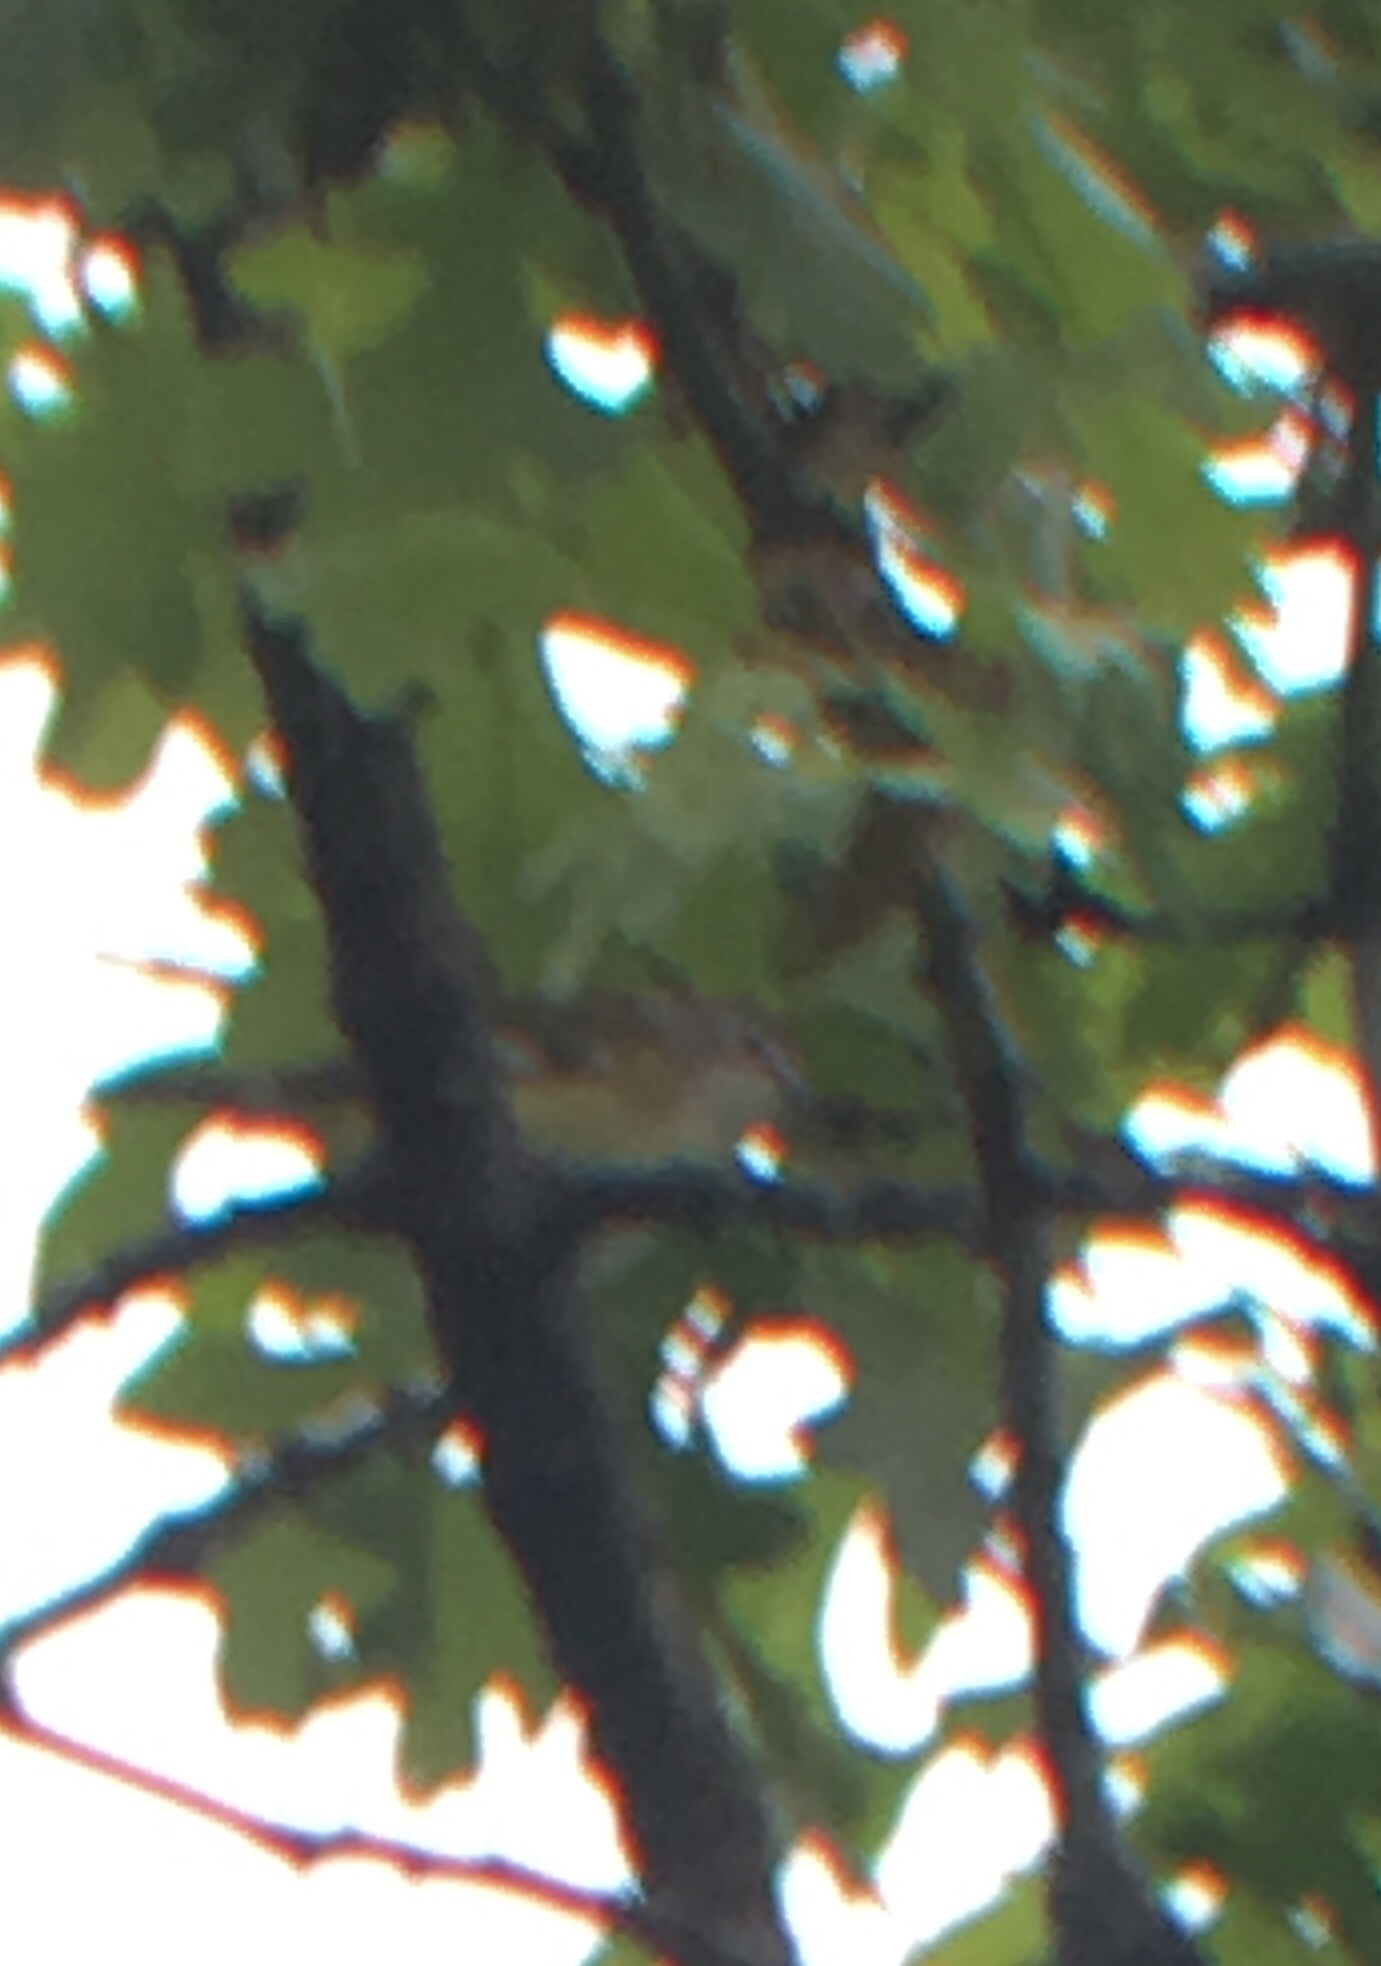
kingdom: Animalia
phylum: Chordata
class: Aves
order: Passeriformes
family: Vireonidae
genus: Vireo
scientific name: Vireo solitarius
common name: Blue-headed vireo
